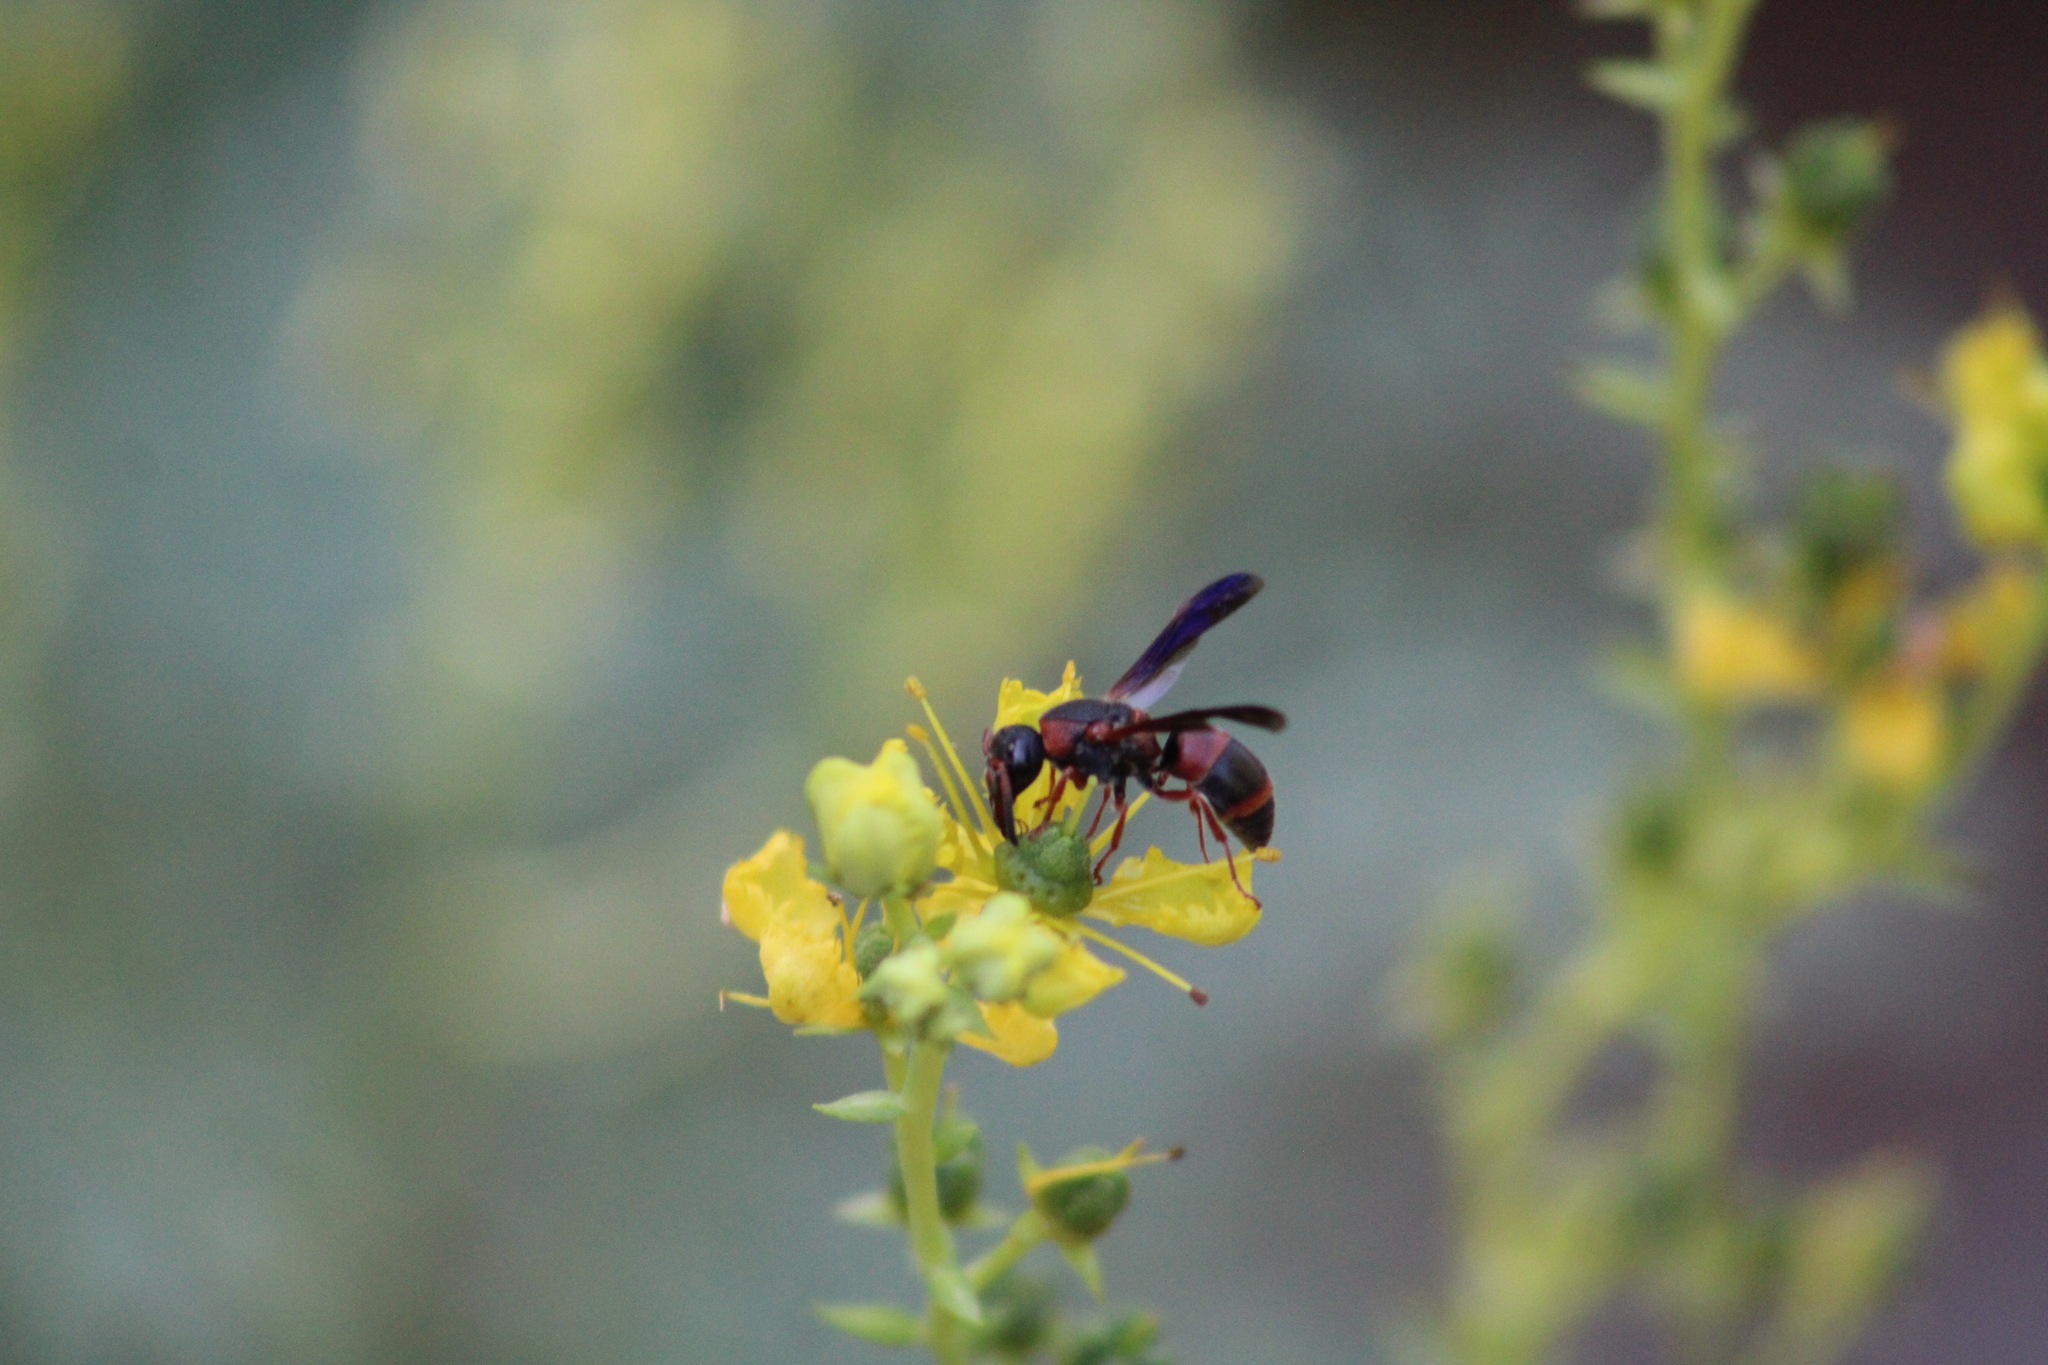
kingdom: Animalia
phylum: Arthropoda
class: Insecta
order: Hymenoptera
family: Eumenidae
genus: Pachodynerus
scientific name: Pachodynerus erynnis
